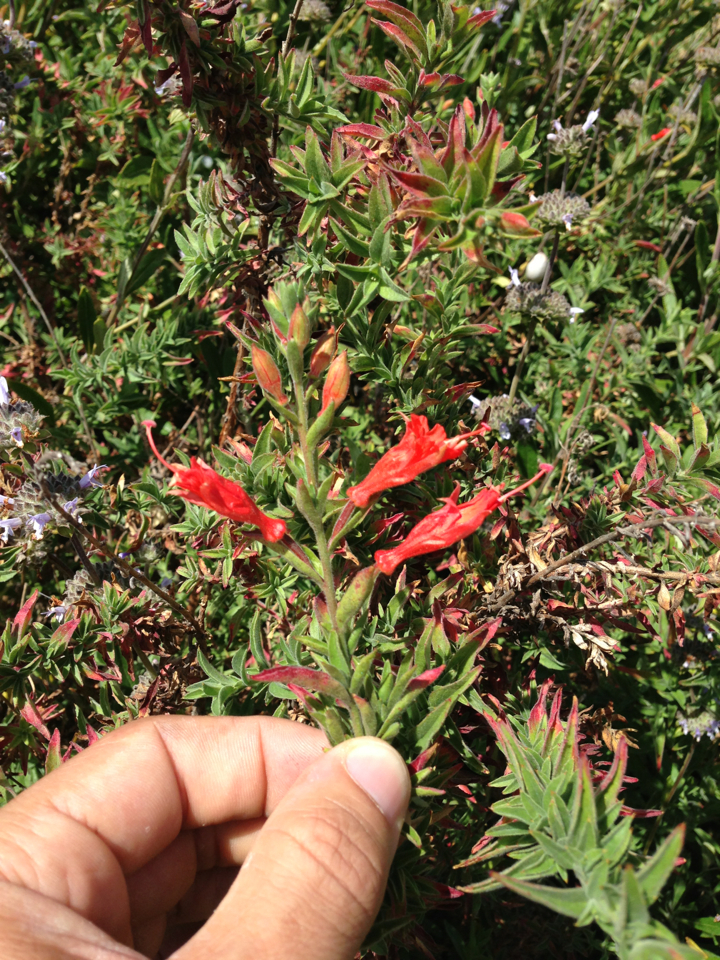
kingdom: Plantae
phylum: Tracheophyta
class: Magnoliopsida
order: Myrtales
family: Onagraceae
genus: Epilobium
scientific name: Epilobium canum
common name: California-fuchsia
